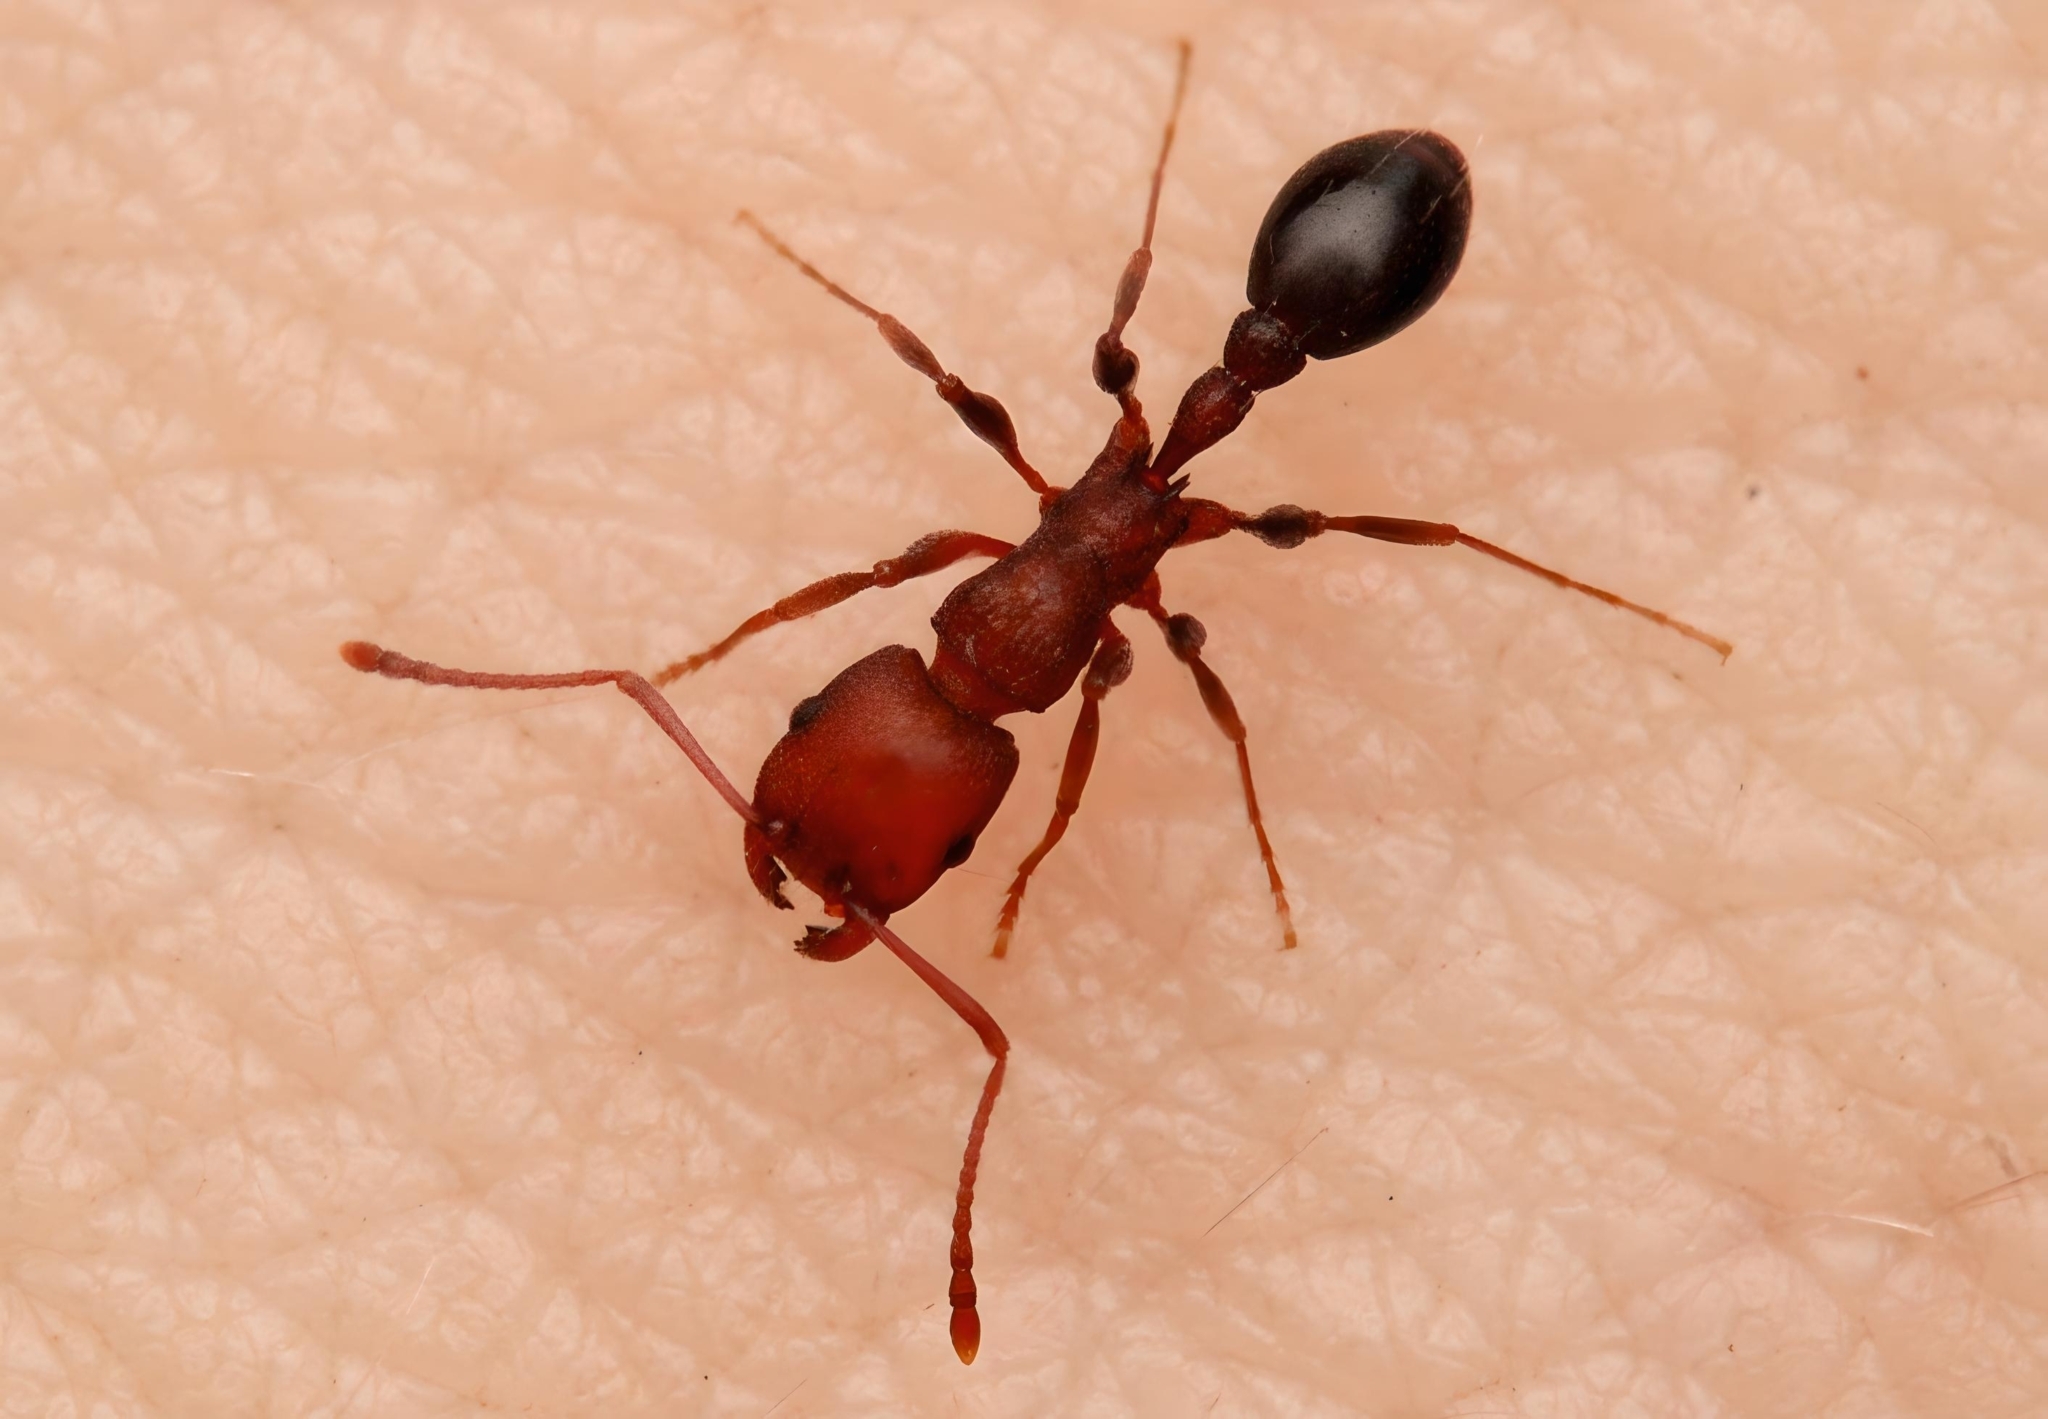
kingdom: Animalia
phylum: Arthropoda
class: Insecta
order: Hymenoptera
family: Formicidae
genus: Tetramorium
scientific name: Tetramorium sericeiventre
